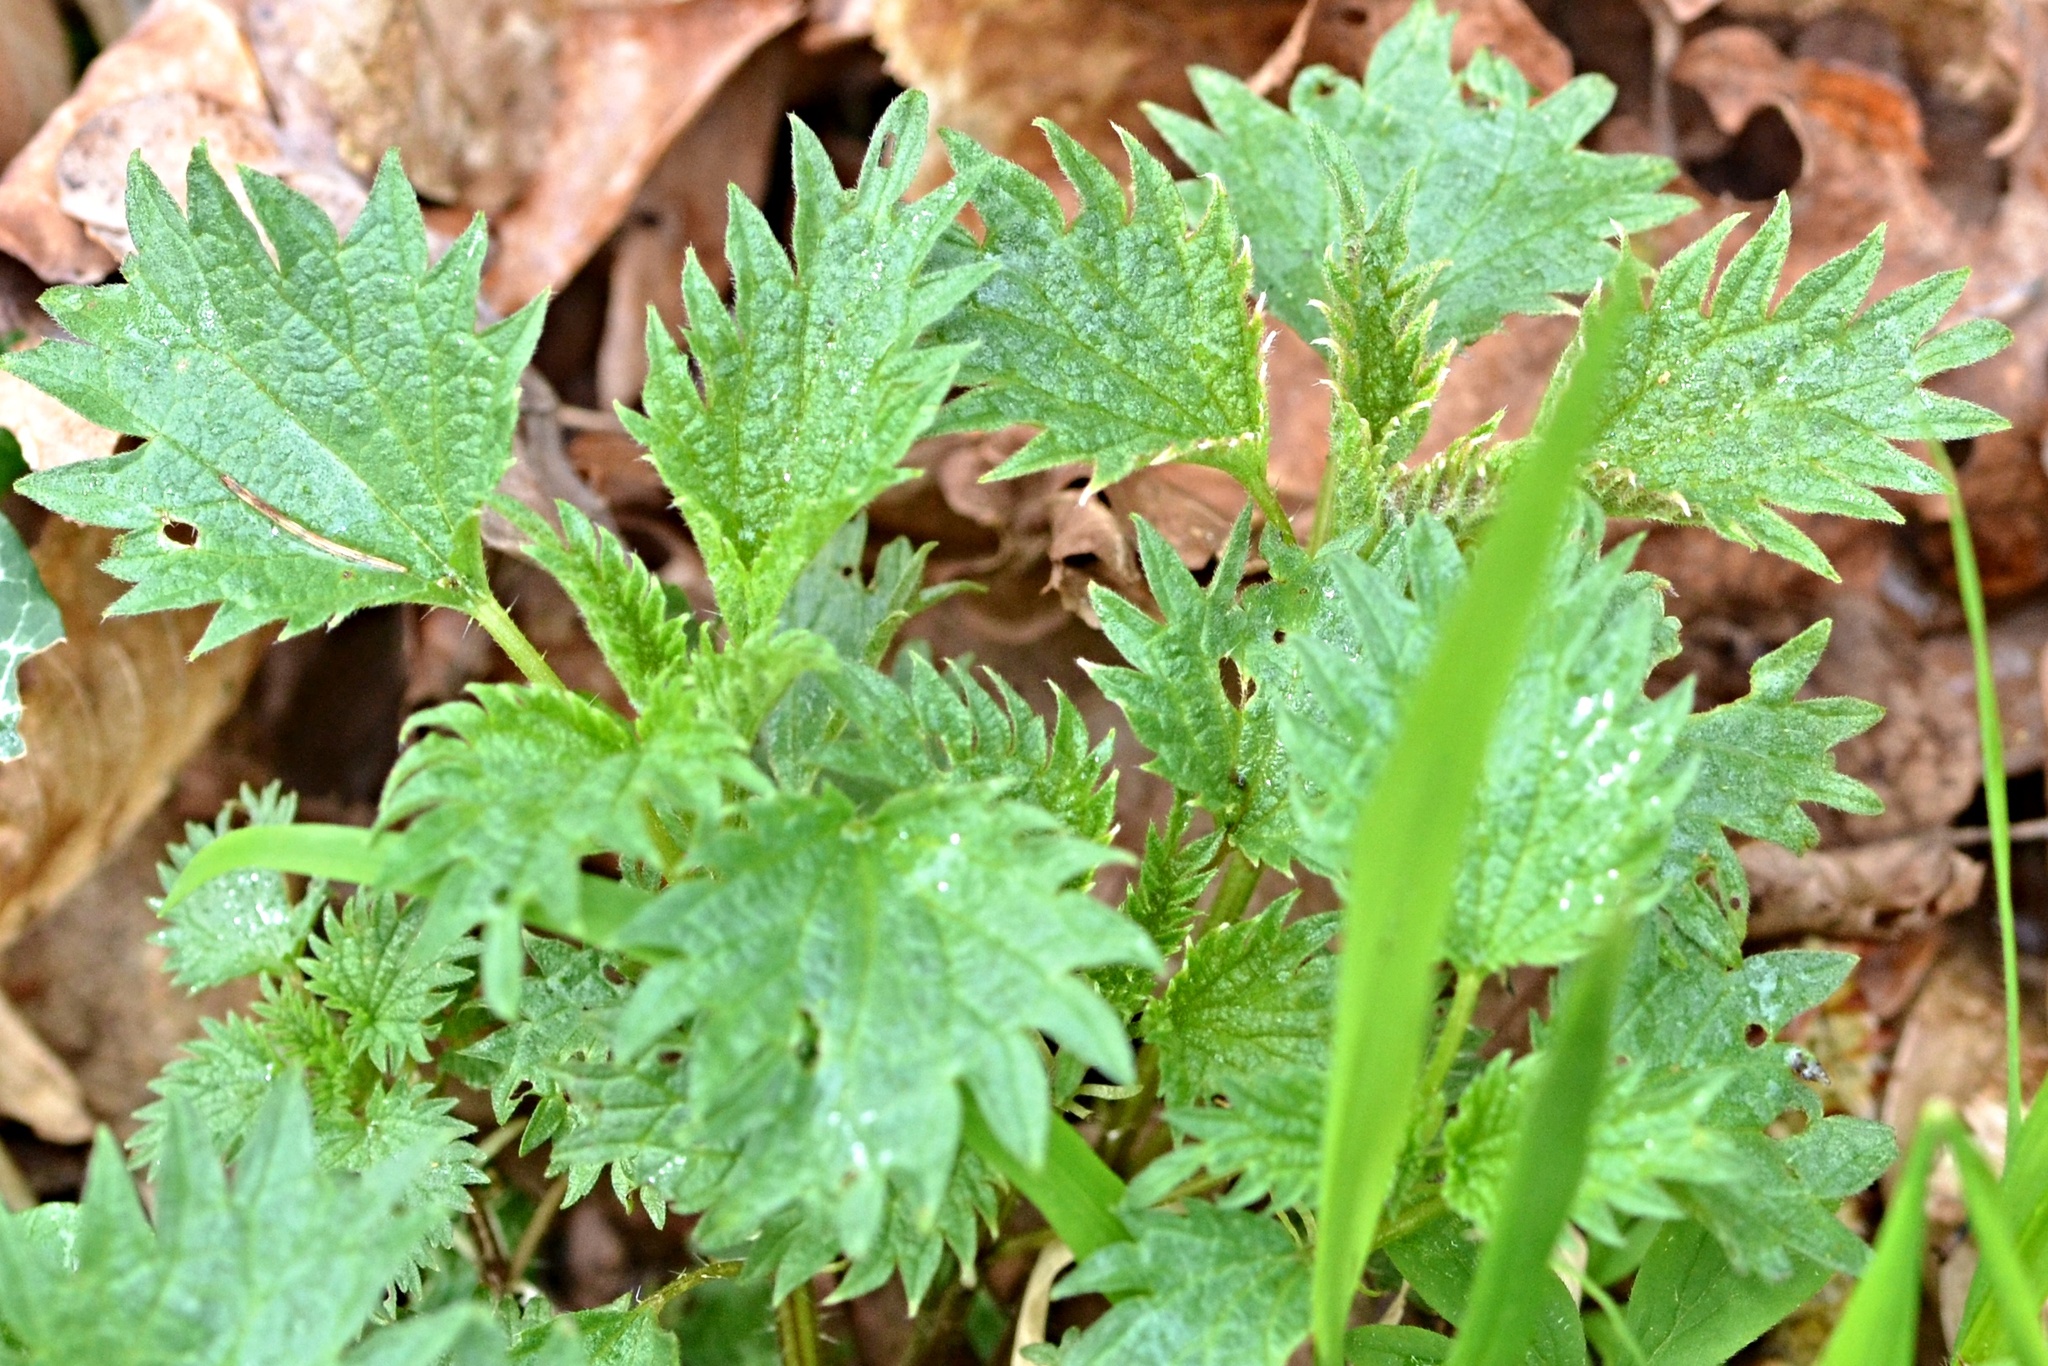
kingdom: Plantae
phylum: Tracheophyta
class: Magnoliopsida
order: Rosales
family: Urticaceae
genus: Urtica
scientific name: Urtica dioica
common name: Common nettle
